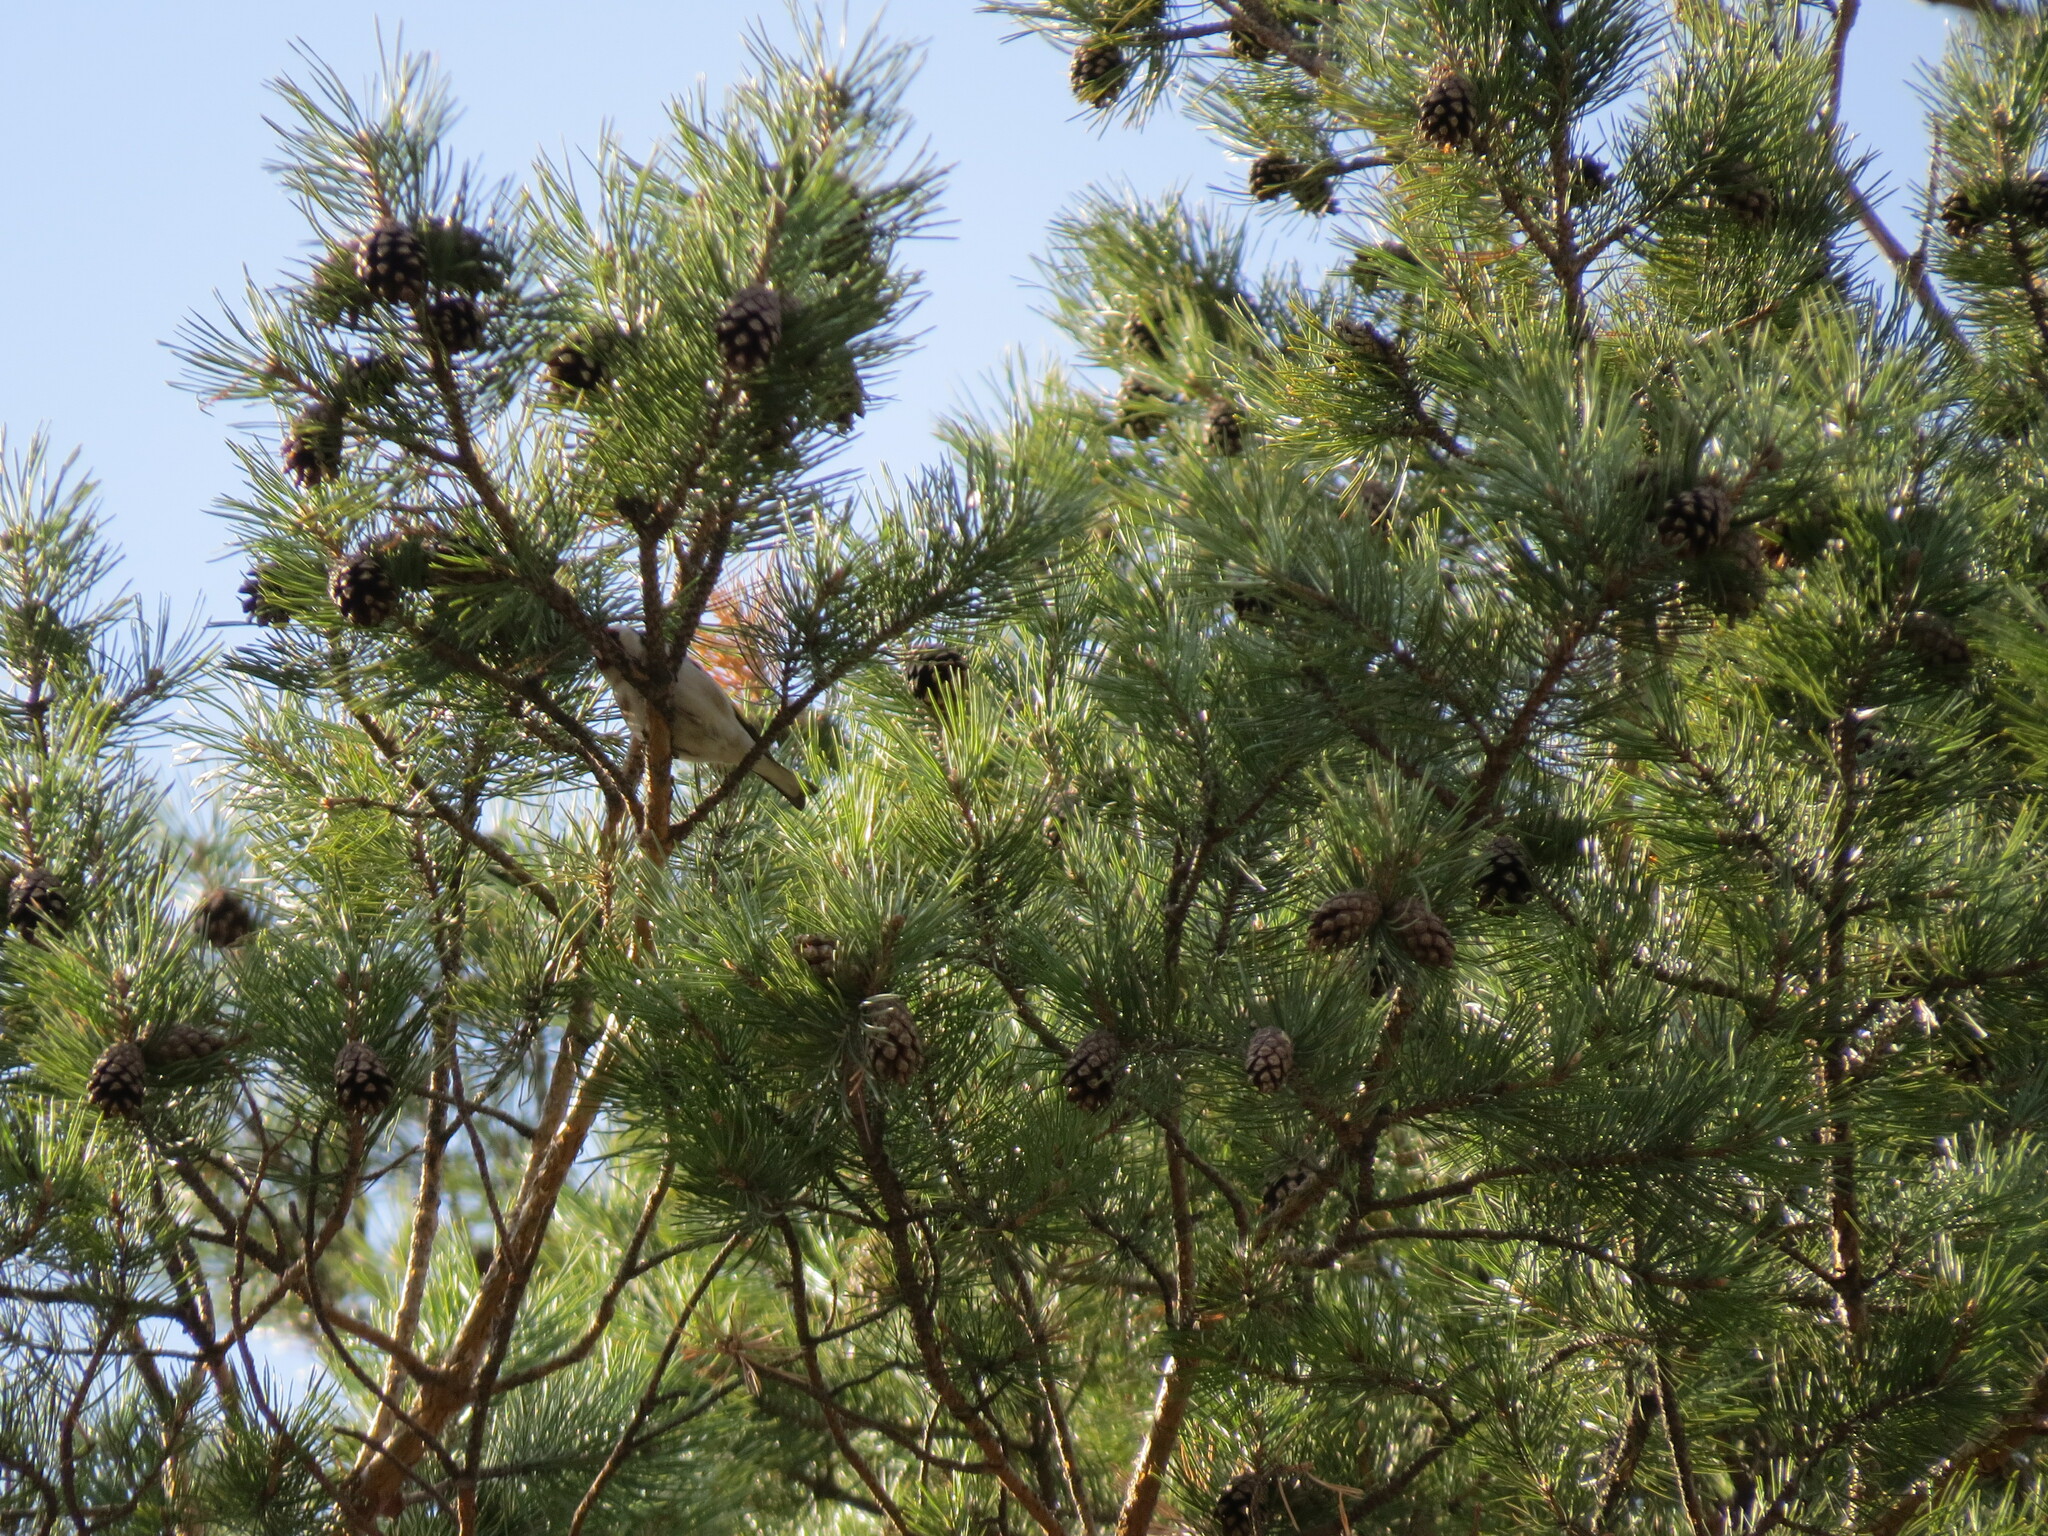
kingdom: Animalia
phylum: Chordata
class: Aves
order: Passeriformes
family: Fringillidae
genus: Carduelis
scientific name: Carduelis carduelis
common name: European goldfinch
